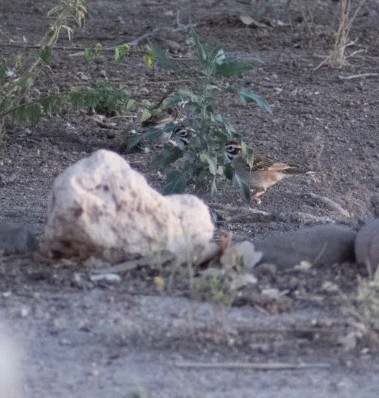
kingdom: Animalia
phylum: Chordata
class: Aves
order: Passeriformes
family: Passerellidae
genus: Chondestes
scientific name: Chondestes grammacus
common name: Lark sparrow
